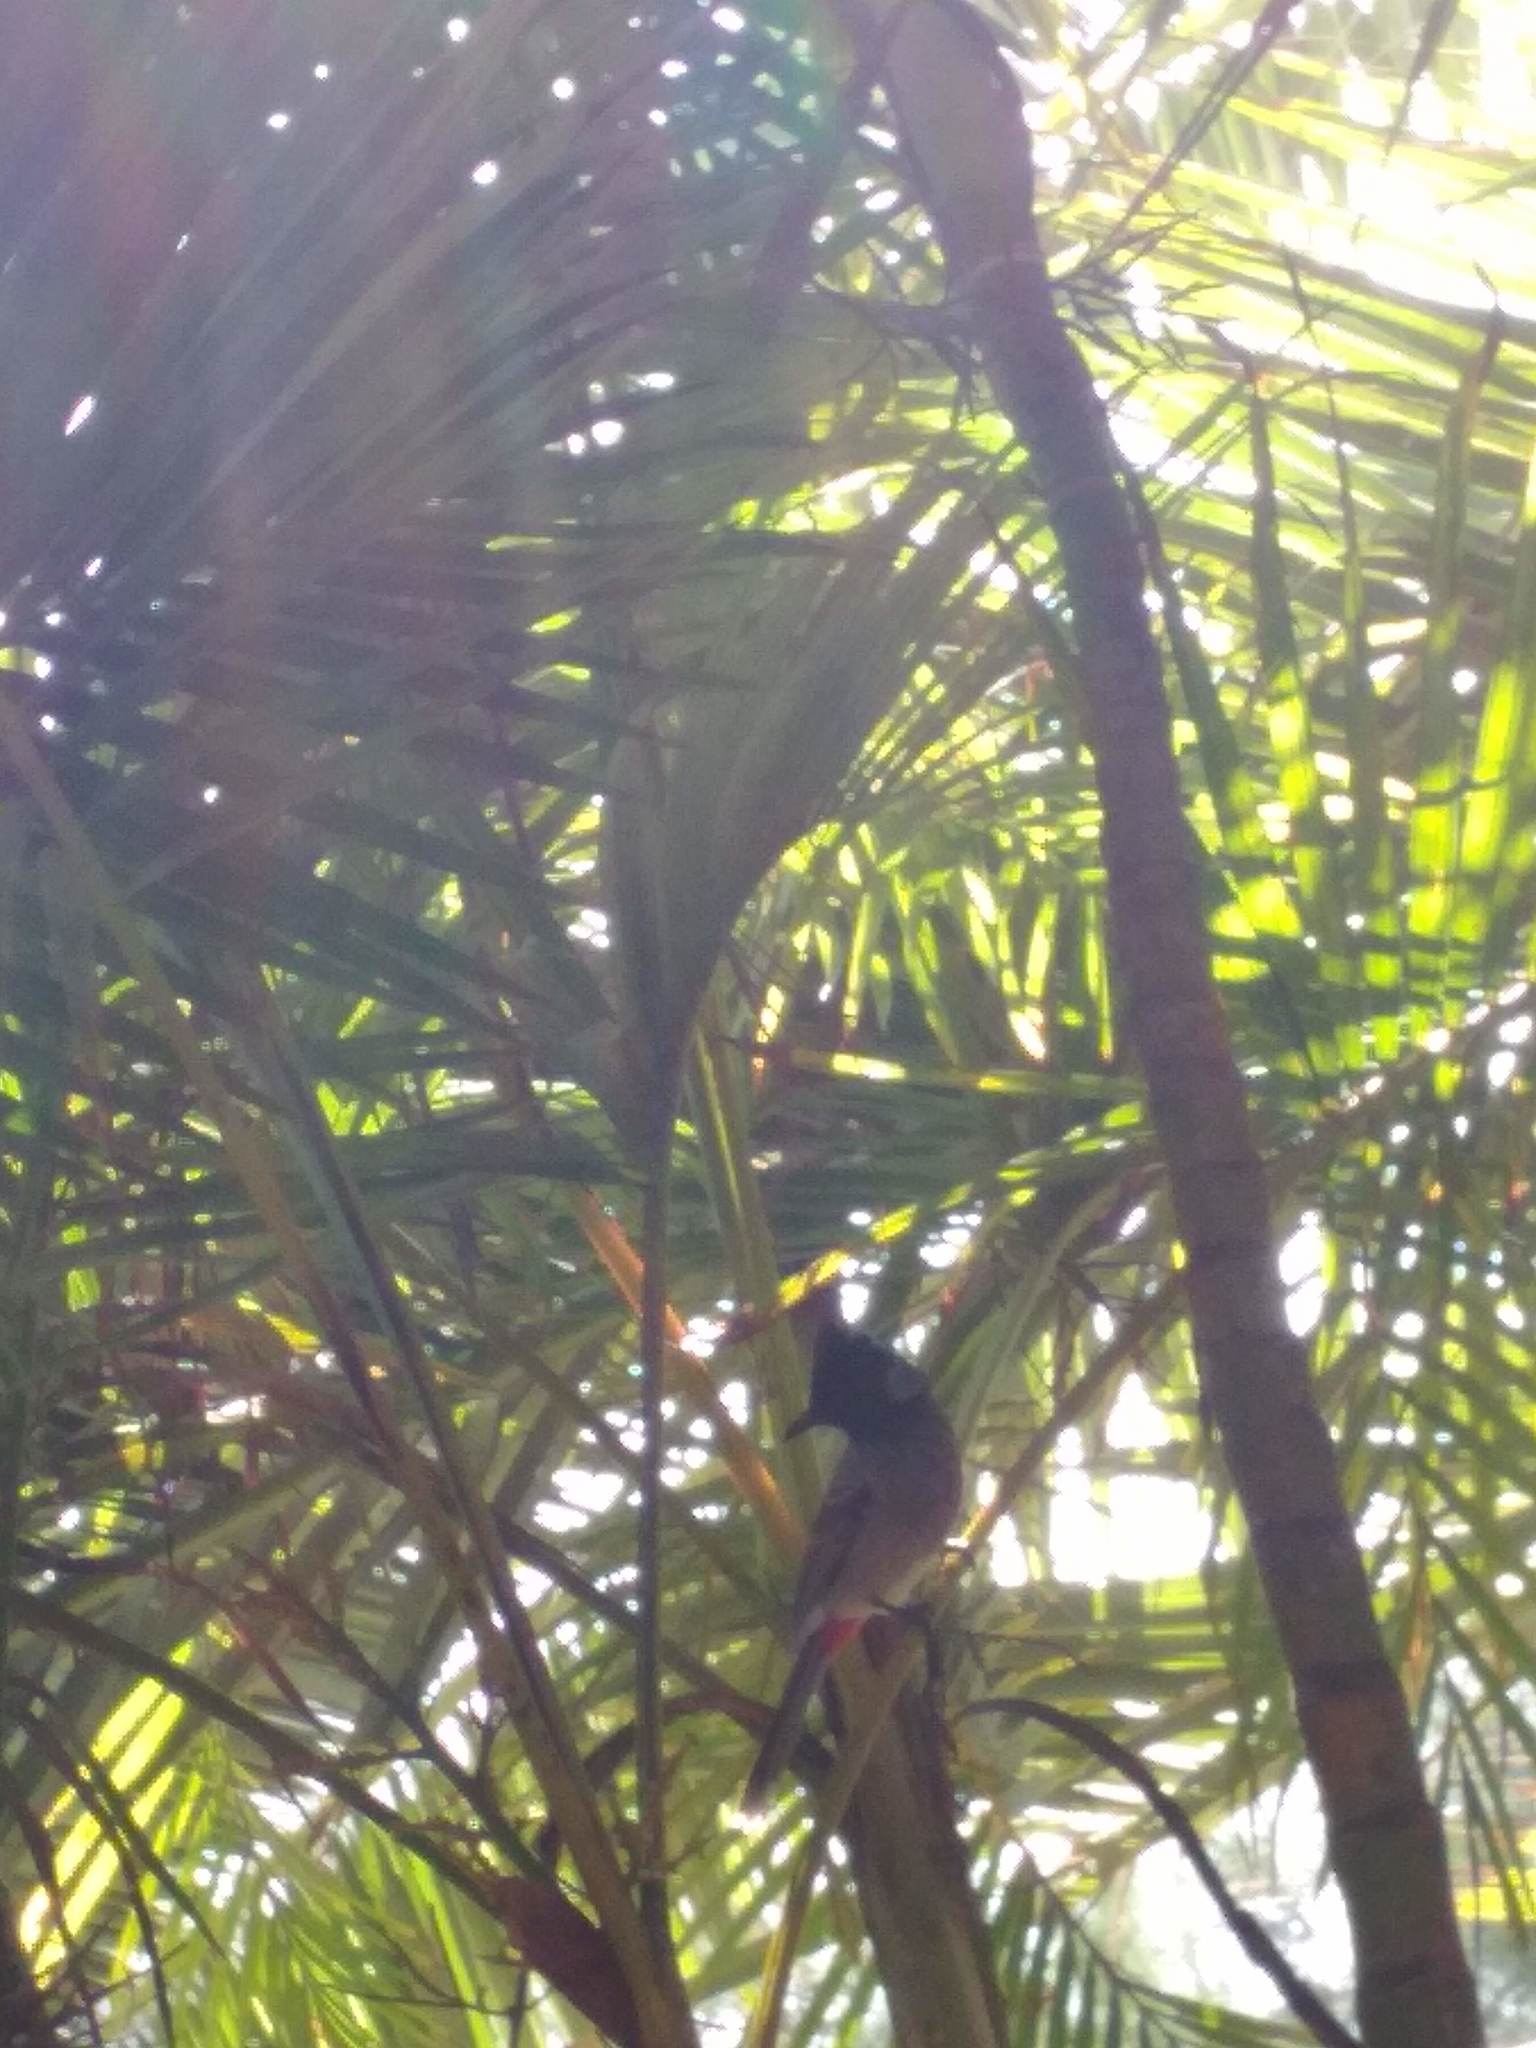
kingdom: Animalia
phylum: Chordata
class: Aves
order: Passeriformes
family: Pycnonotidae
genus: Pycnonotus
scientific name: Pycnonotus cafer
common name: Red-vented bulbul
